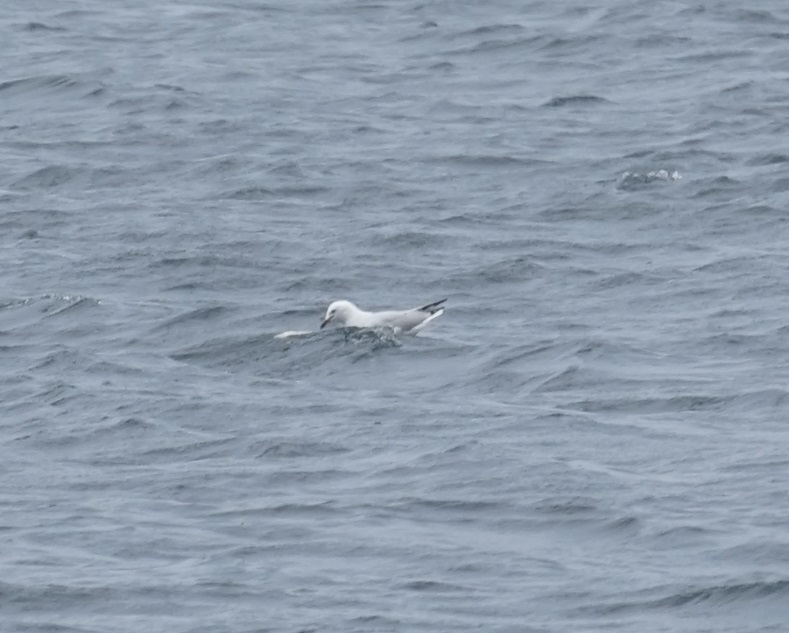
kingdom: Animalia
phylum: Chordata
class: Aves
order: Charadriiformes
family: Laridae
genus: Chroicocephalus
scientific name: Chroicocephalus novaehollandiae
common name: Silver gull
